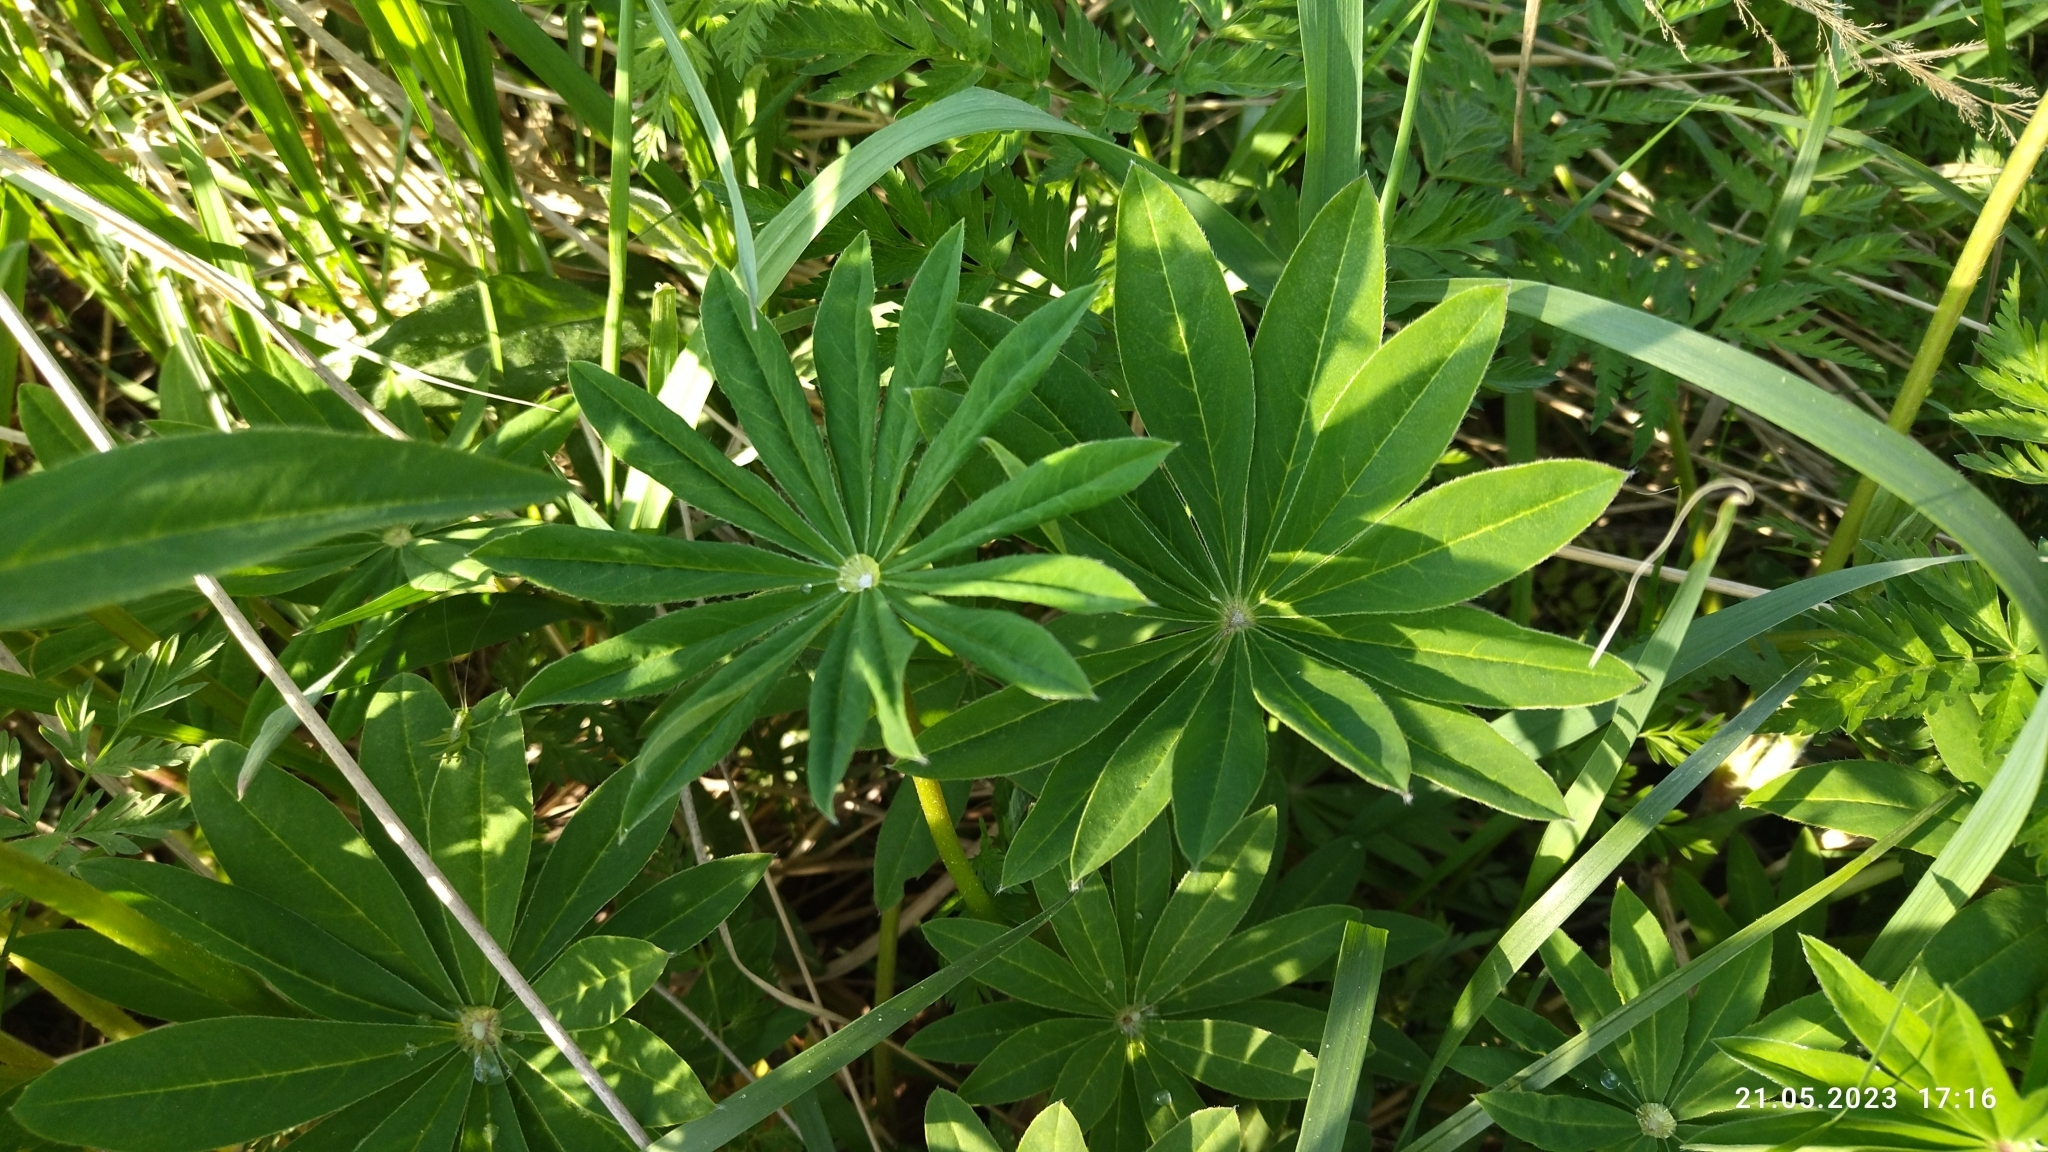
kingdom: Plantae
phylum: Tracheophyta
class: Magnoliopsida
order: Fabales
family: Fabaceae
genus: Lupinus
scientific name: Lupinus polyphyllus
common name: Garden lupin
